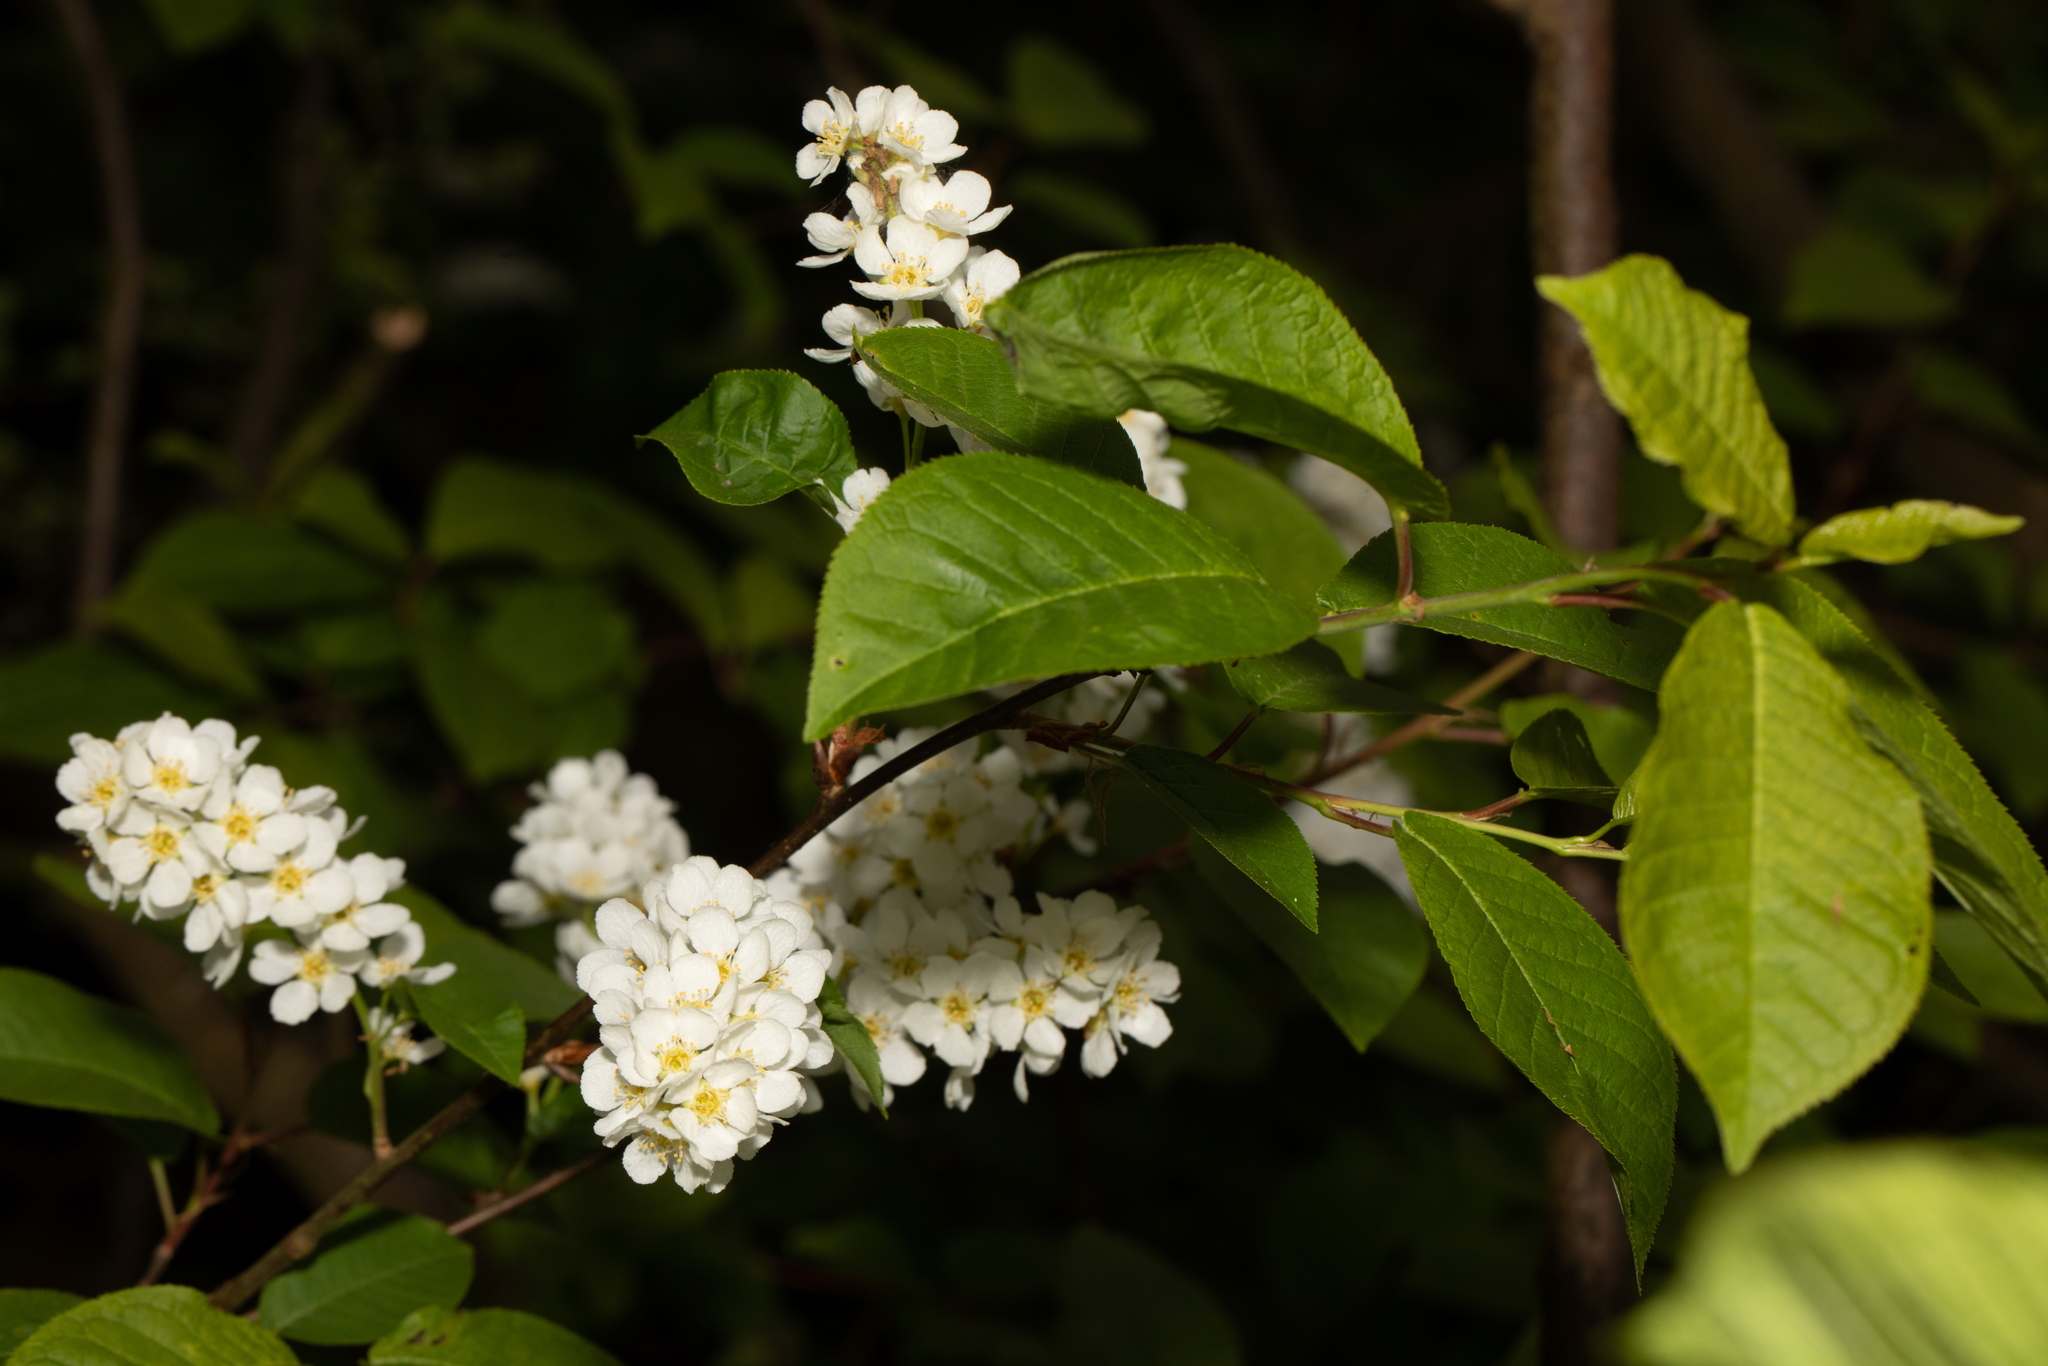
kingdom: Plantae
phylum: Tracheophyta
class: Magnoliopsida
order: Rosales
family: Rosaceae
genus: Prunus
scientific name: Prunus padus
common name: Bird cherry
